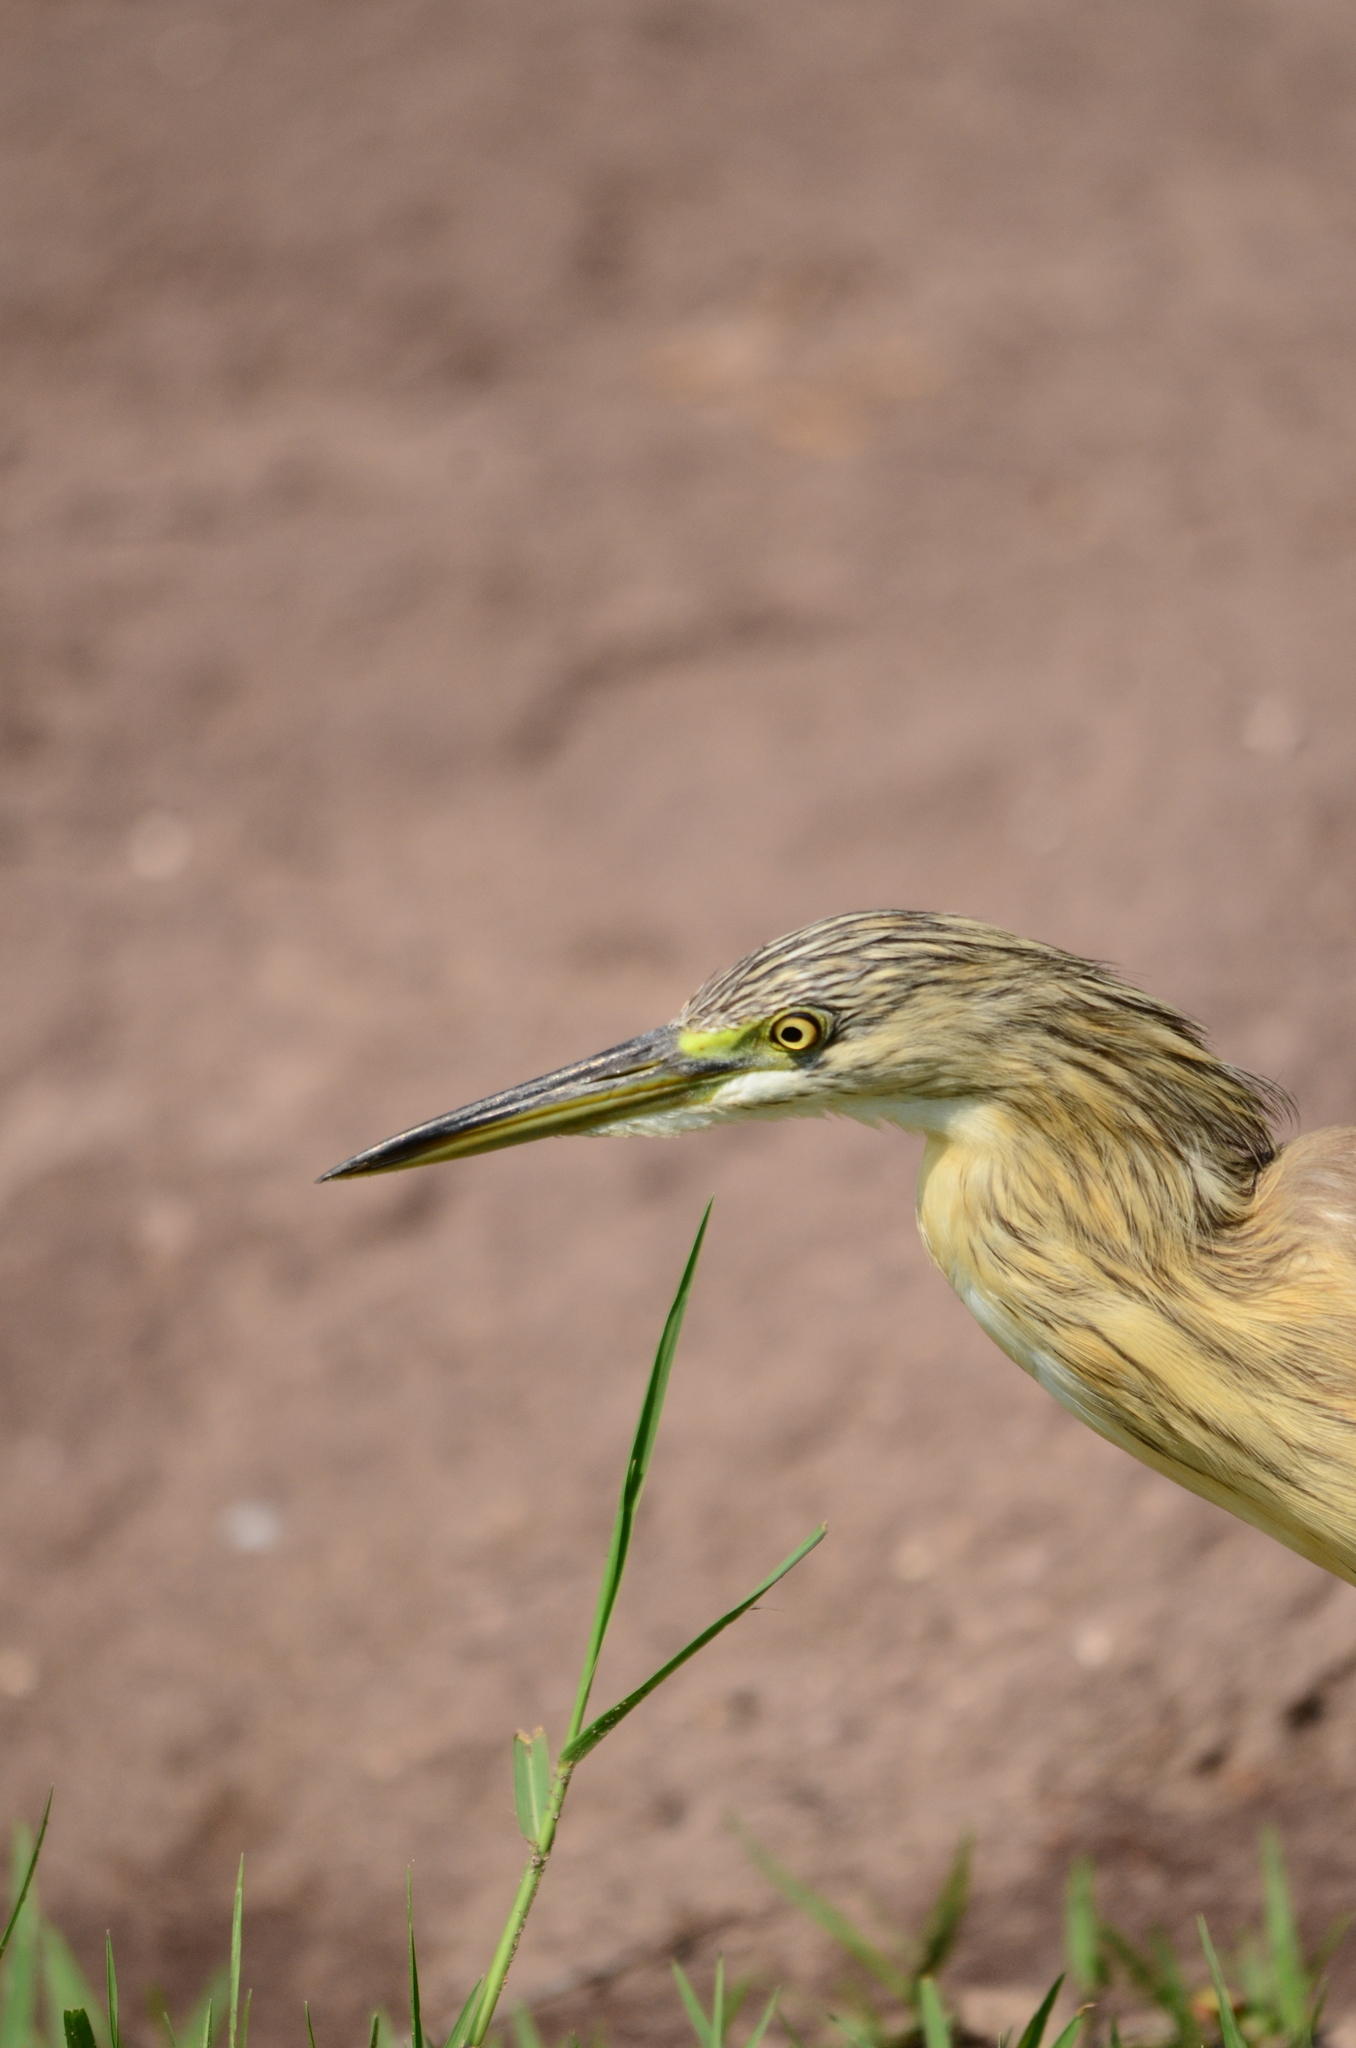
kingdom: Animalia
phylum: Chordata
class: Aves
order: Pelecaniformes
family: Ardeidae
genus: Ardeola
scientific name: Ardeola ralloides
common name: Squacco heron
